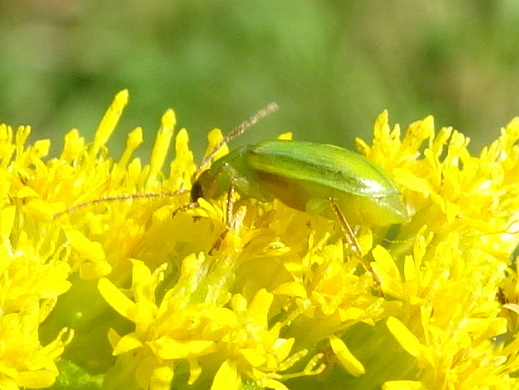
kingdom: Animalia
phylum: Arthropoda
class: Insecta
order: Coleoptera
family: Chrysomelidae
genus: Diabrotica
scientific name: Diabrotica barberi
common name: Northern corn rootworm
